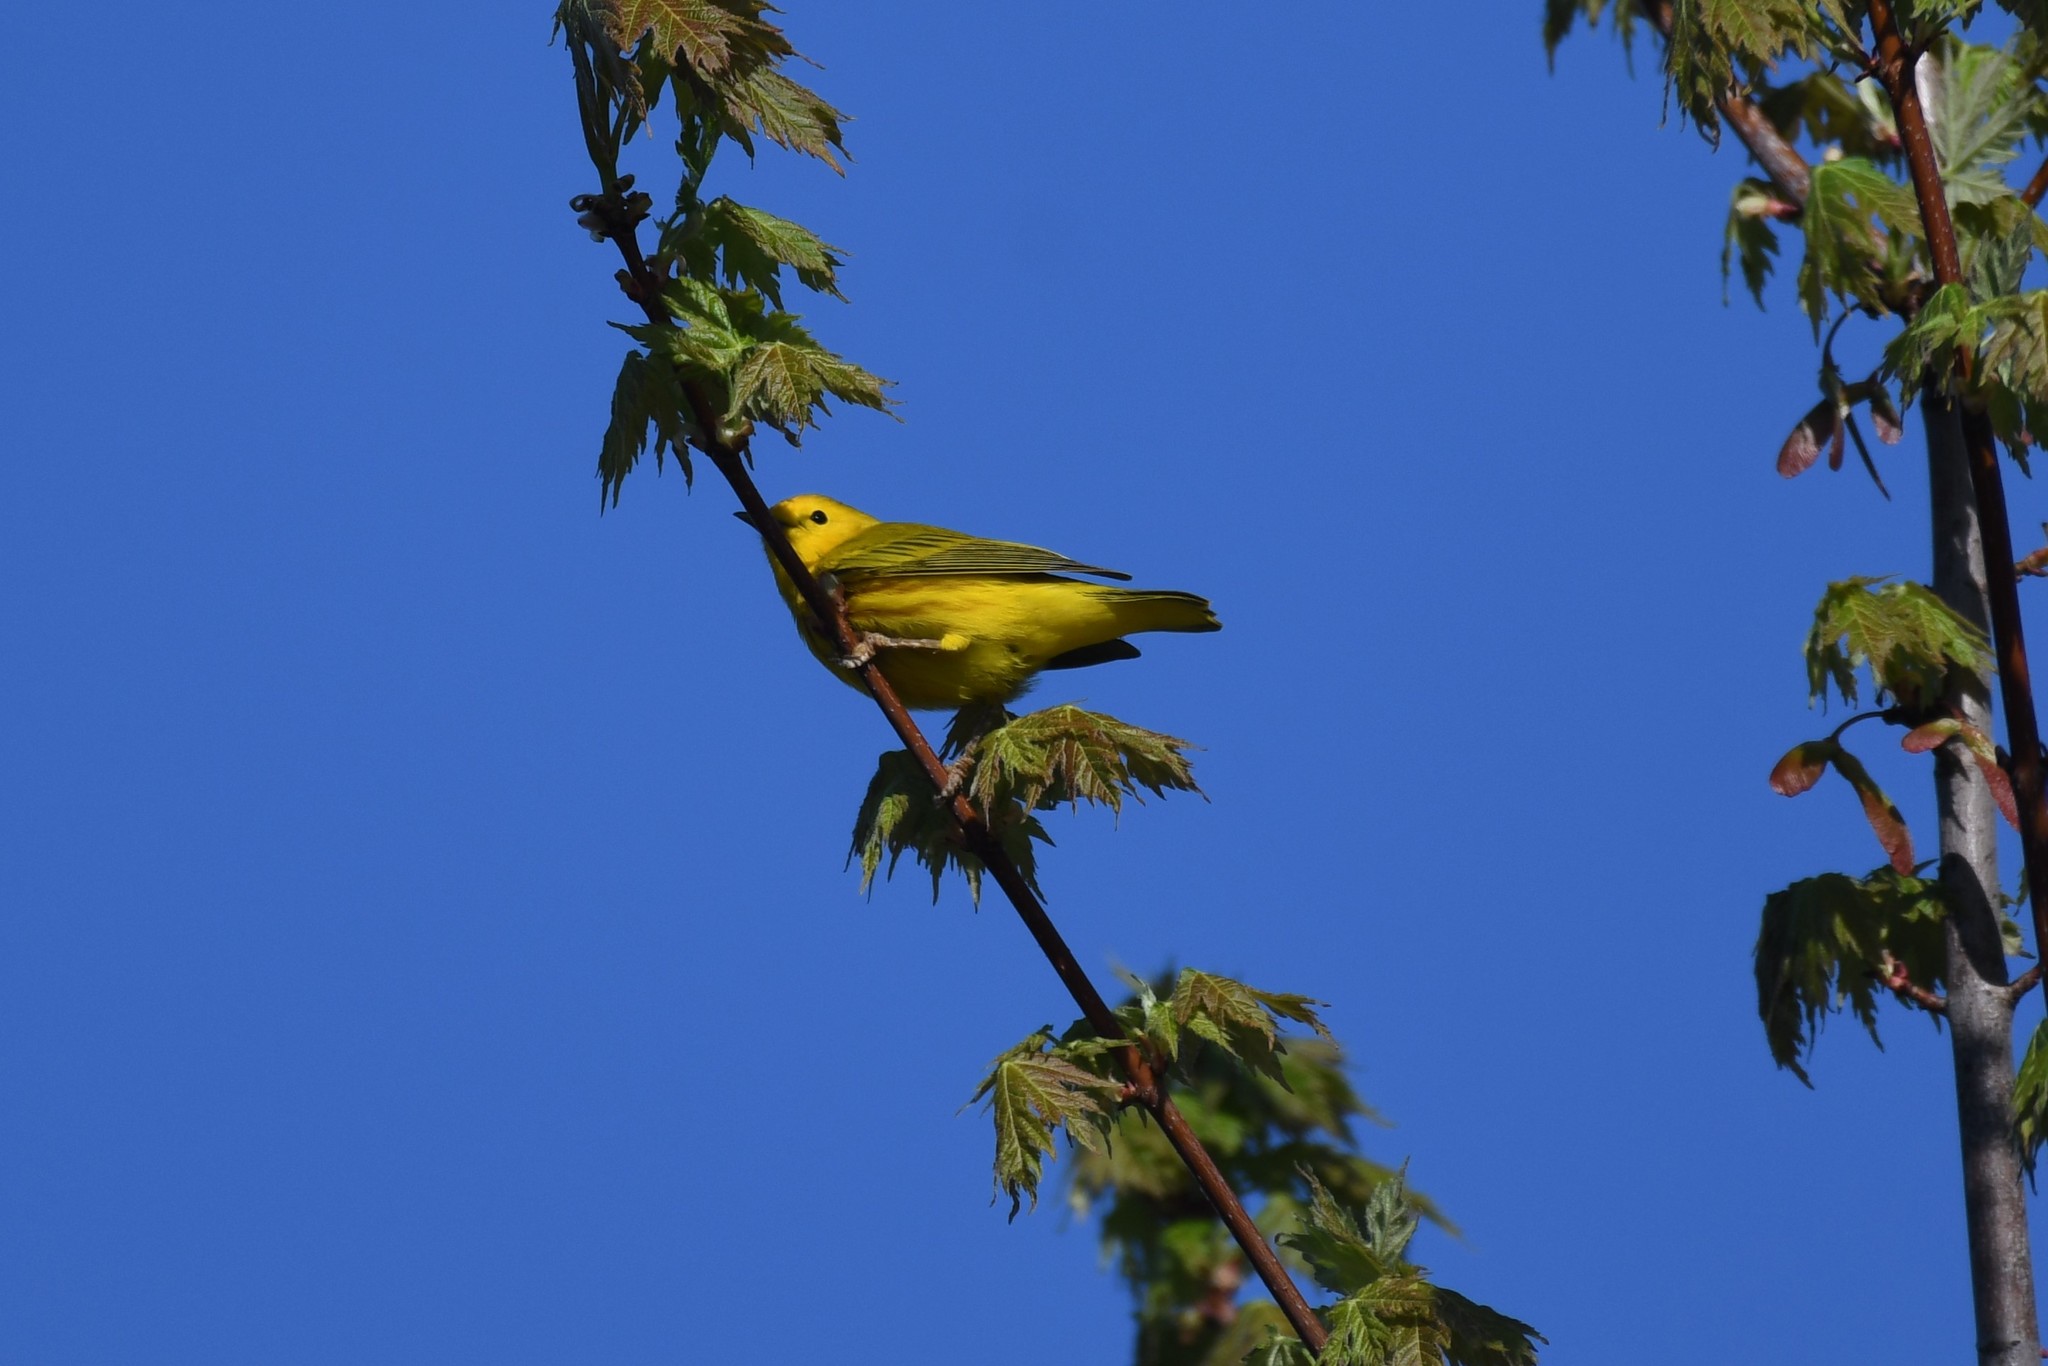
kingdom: Animalia
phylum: Chordata
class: Aves
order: Passeriformes
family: Parulidae
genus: Setophaga
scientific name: Setophaga petechia
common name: Yellow warbler
